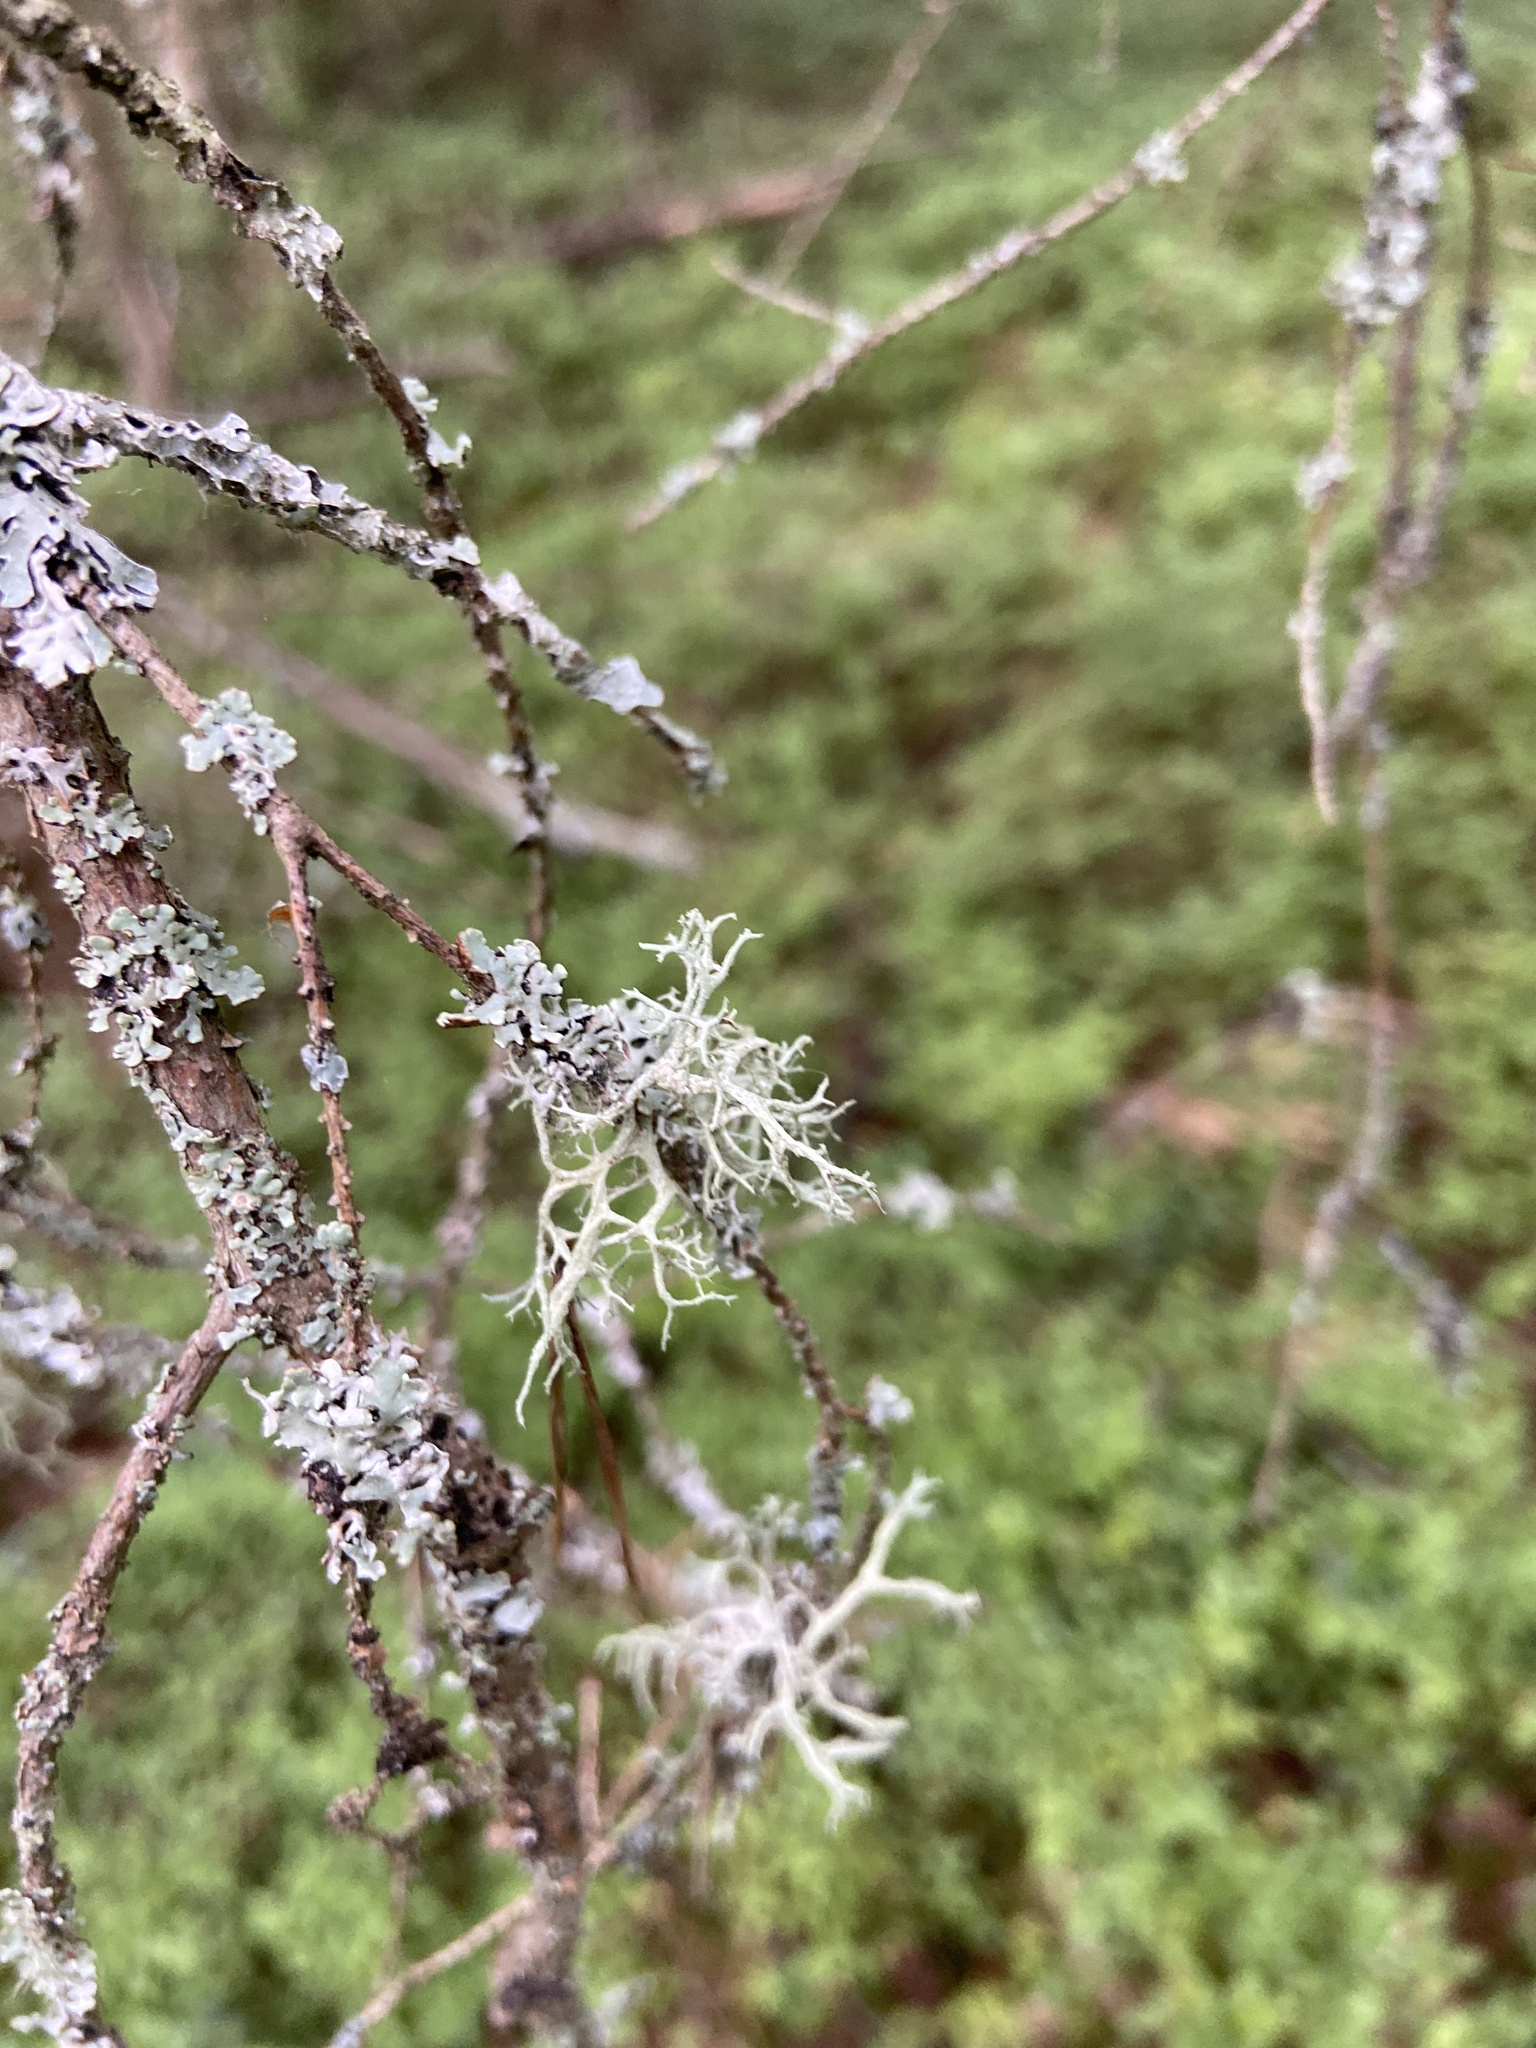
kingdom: Fungi
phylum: Ascomycota
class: Lecanoromycetes
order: Lecanorales
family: Parmeliaceae
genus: Evernia
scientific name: Evernia mesomorpha
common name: Boreal oak moss lichen
